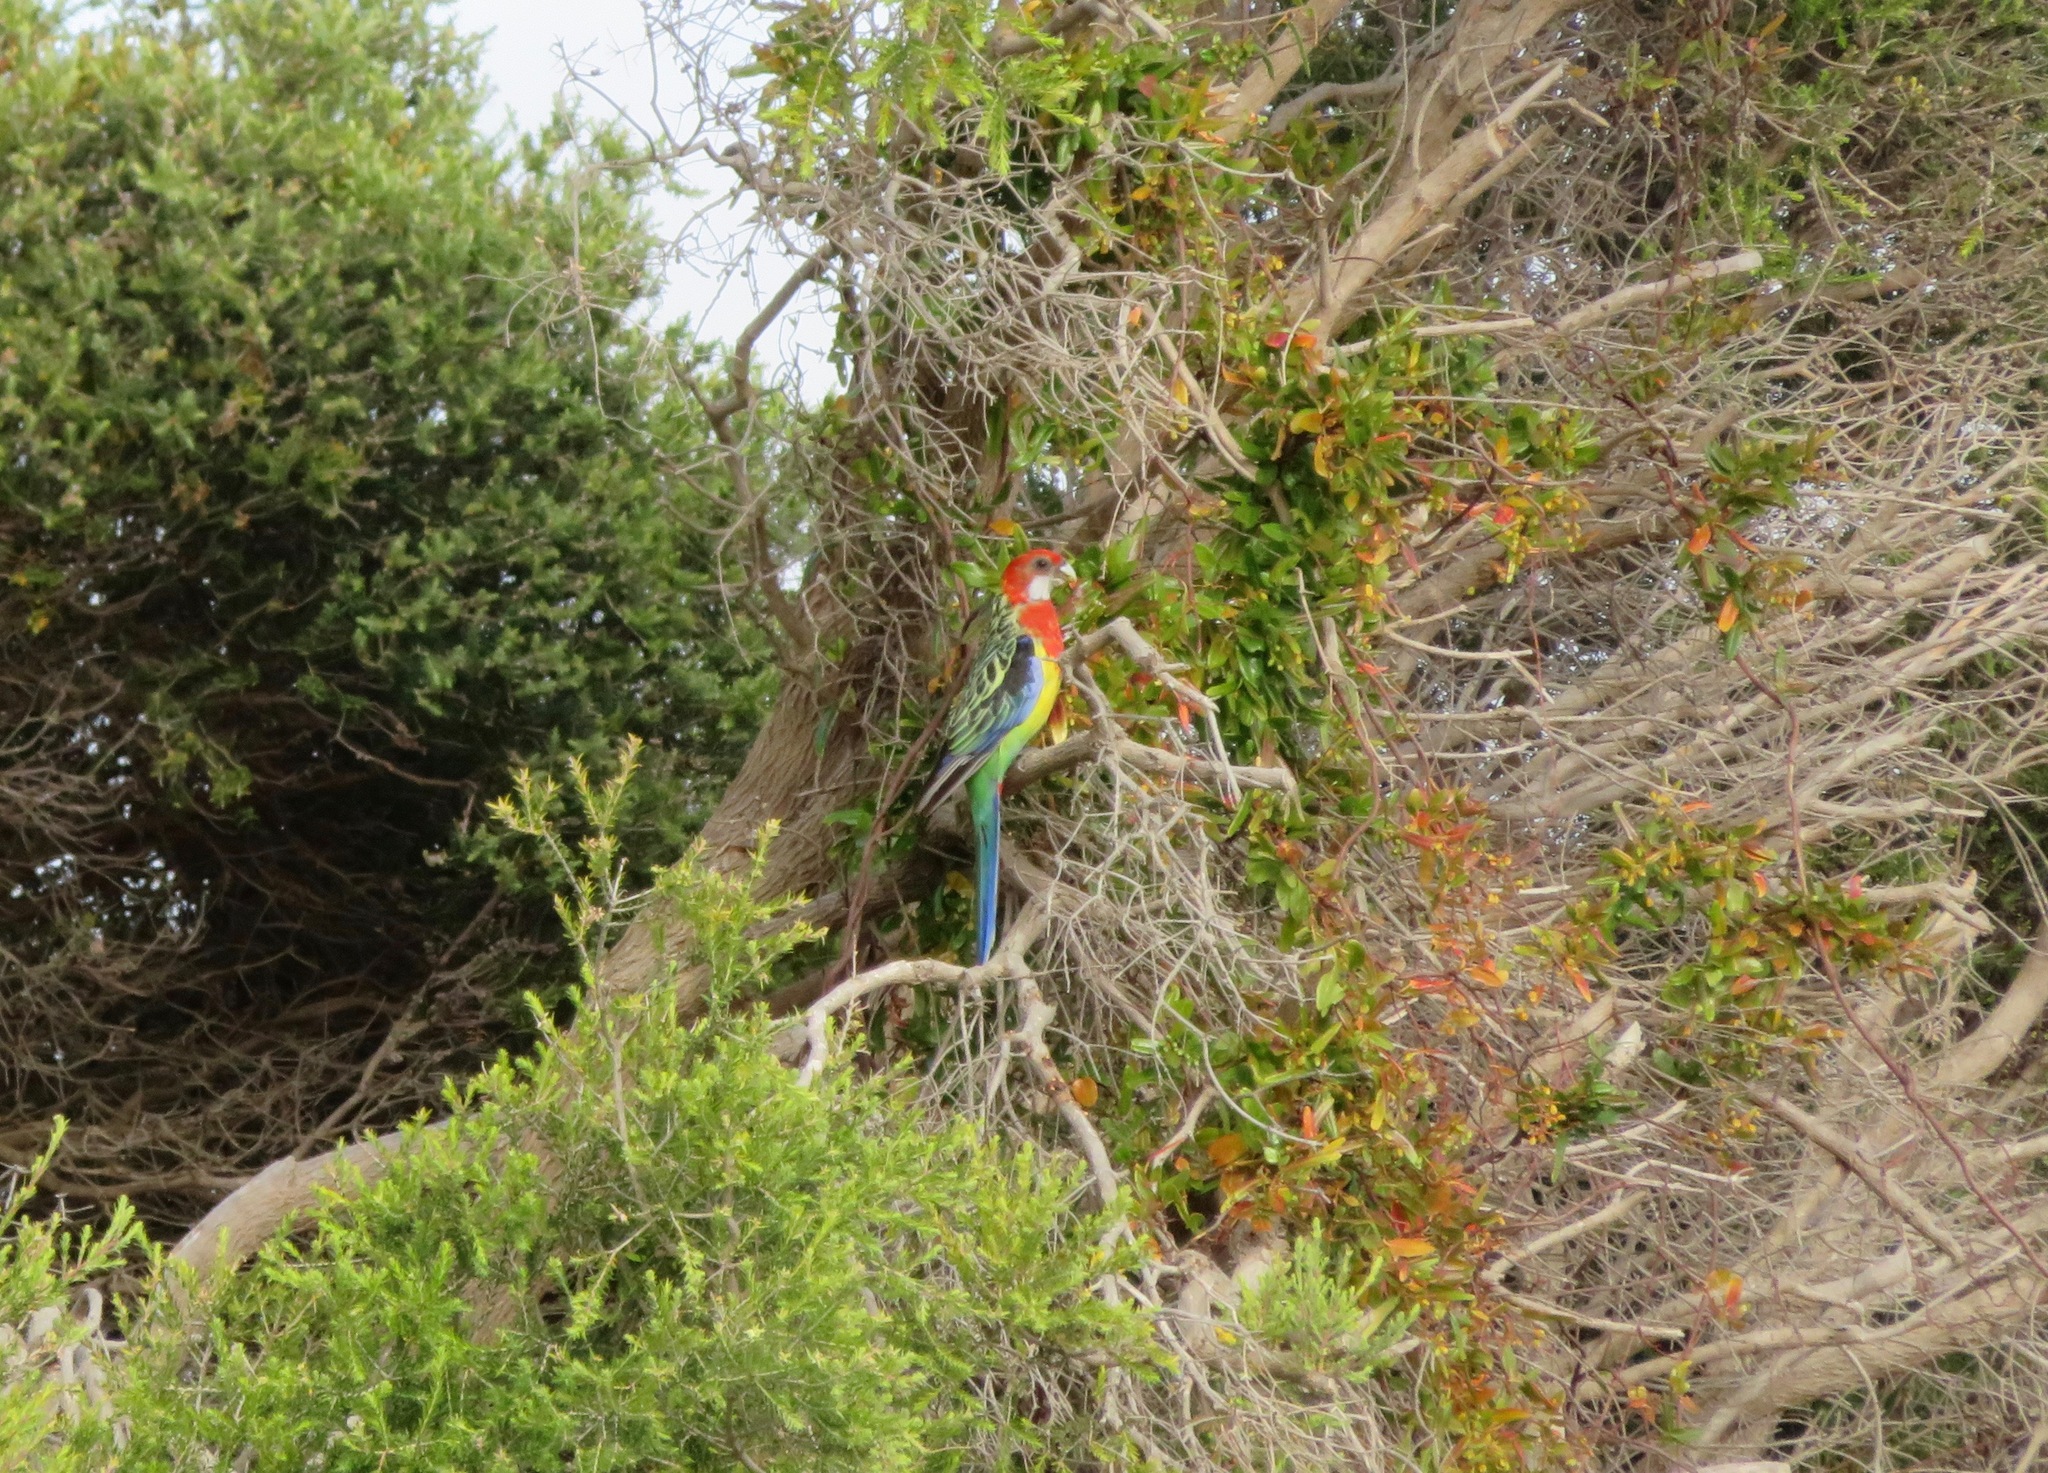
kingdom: Animalia
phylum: Chordata
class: Aves
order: Psittaciformes
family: Psittacidae
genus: Platycercus
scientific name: Platycercus eximius
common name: Eastern rosella
